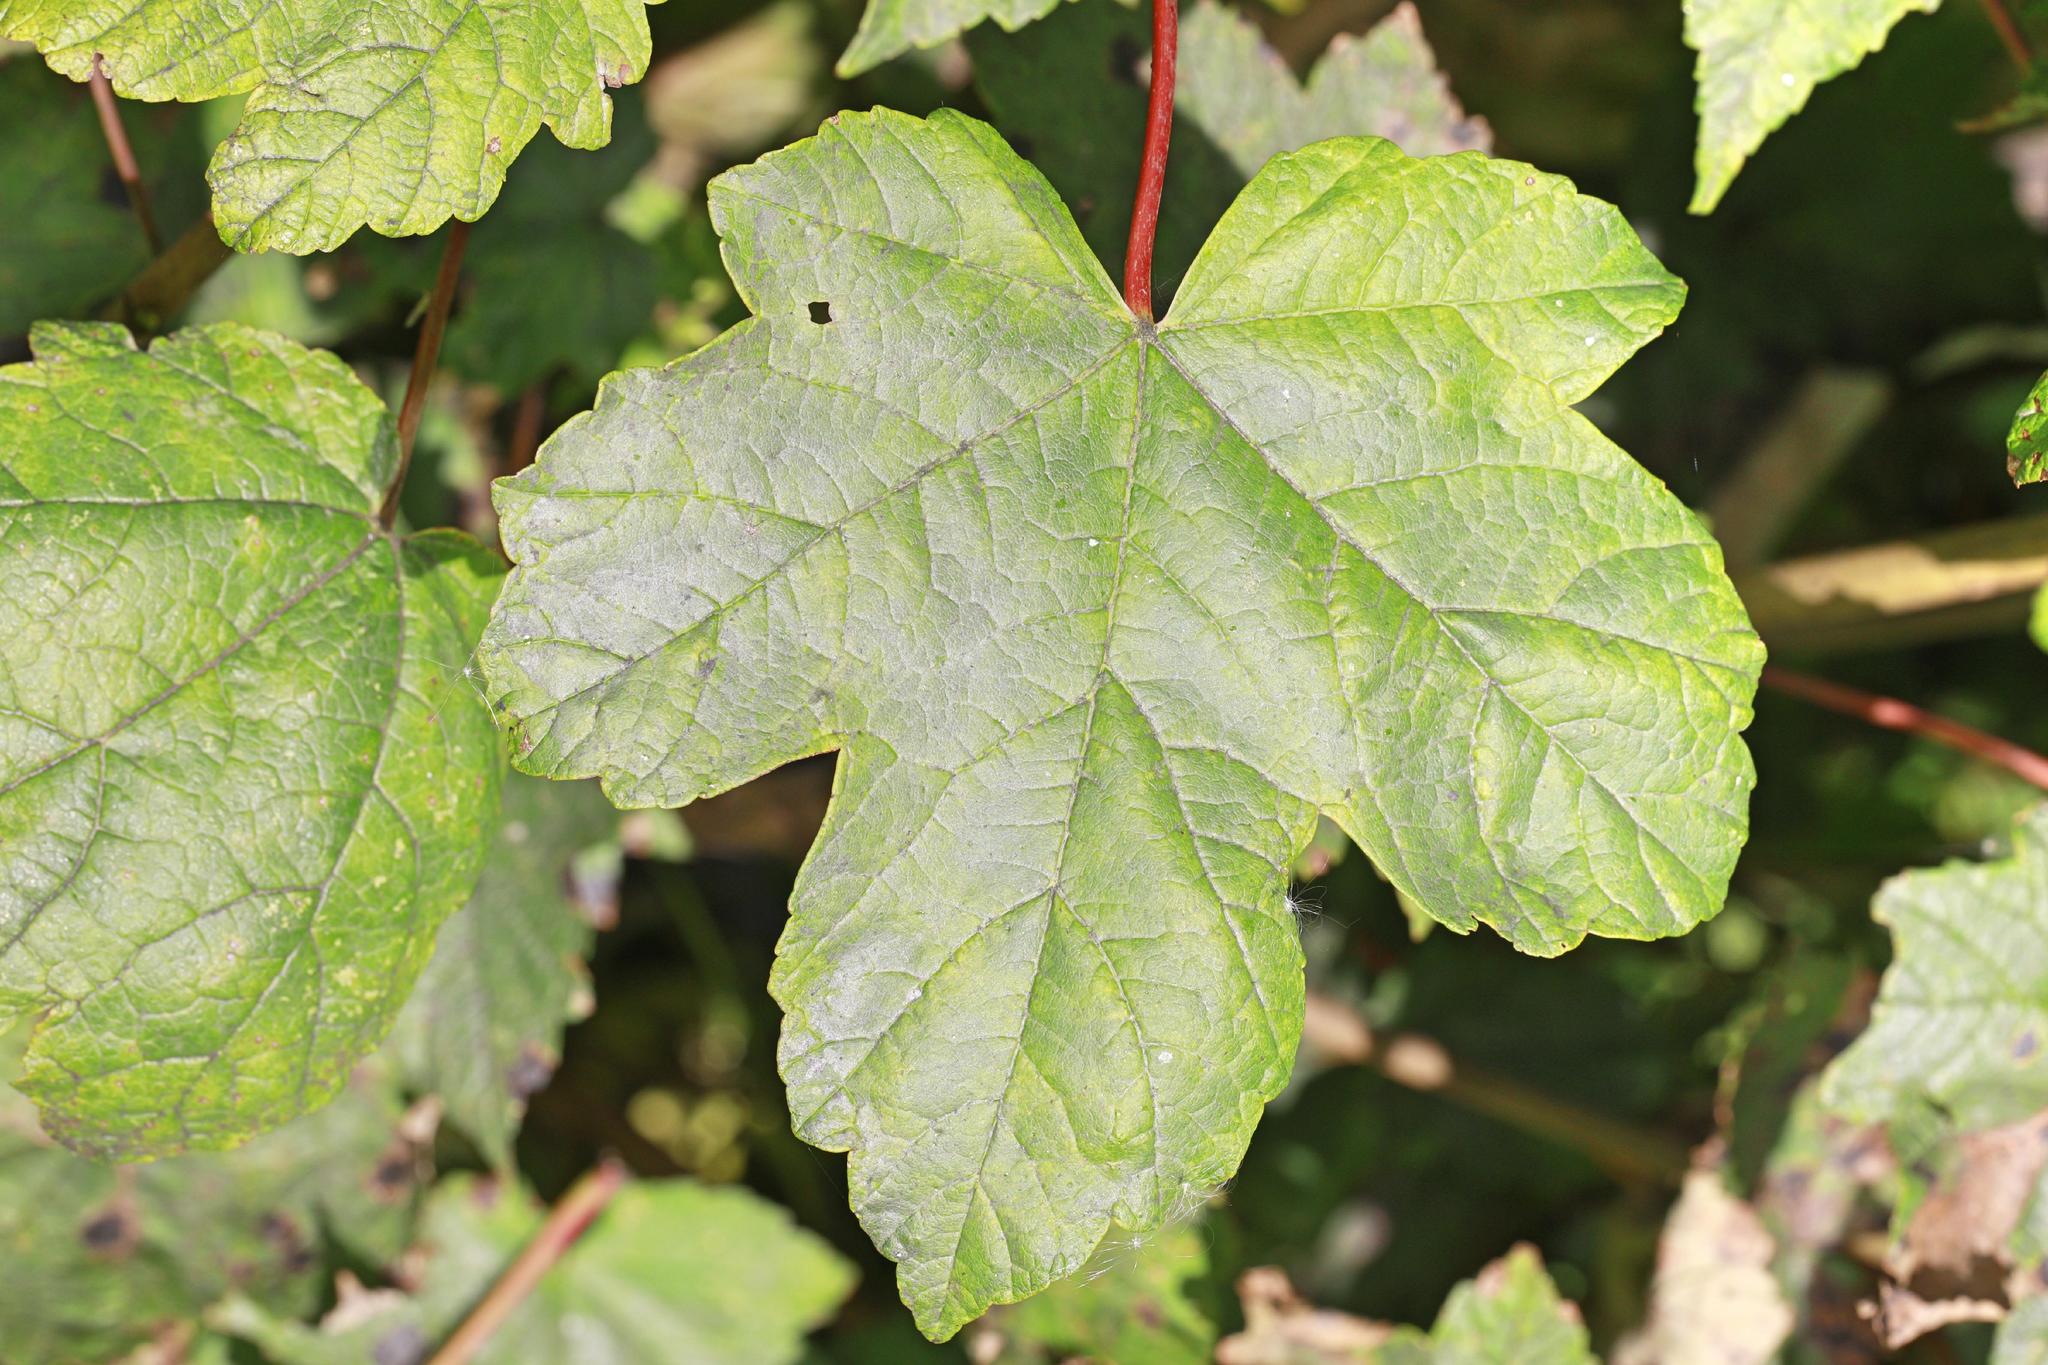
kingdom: Plantae
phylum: Tracheophyta
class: Magnoliopsida
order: Sapindales
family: Sapindaceae
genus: Acer
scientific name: Acer pseudoplatanus
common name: Sycamore
